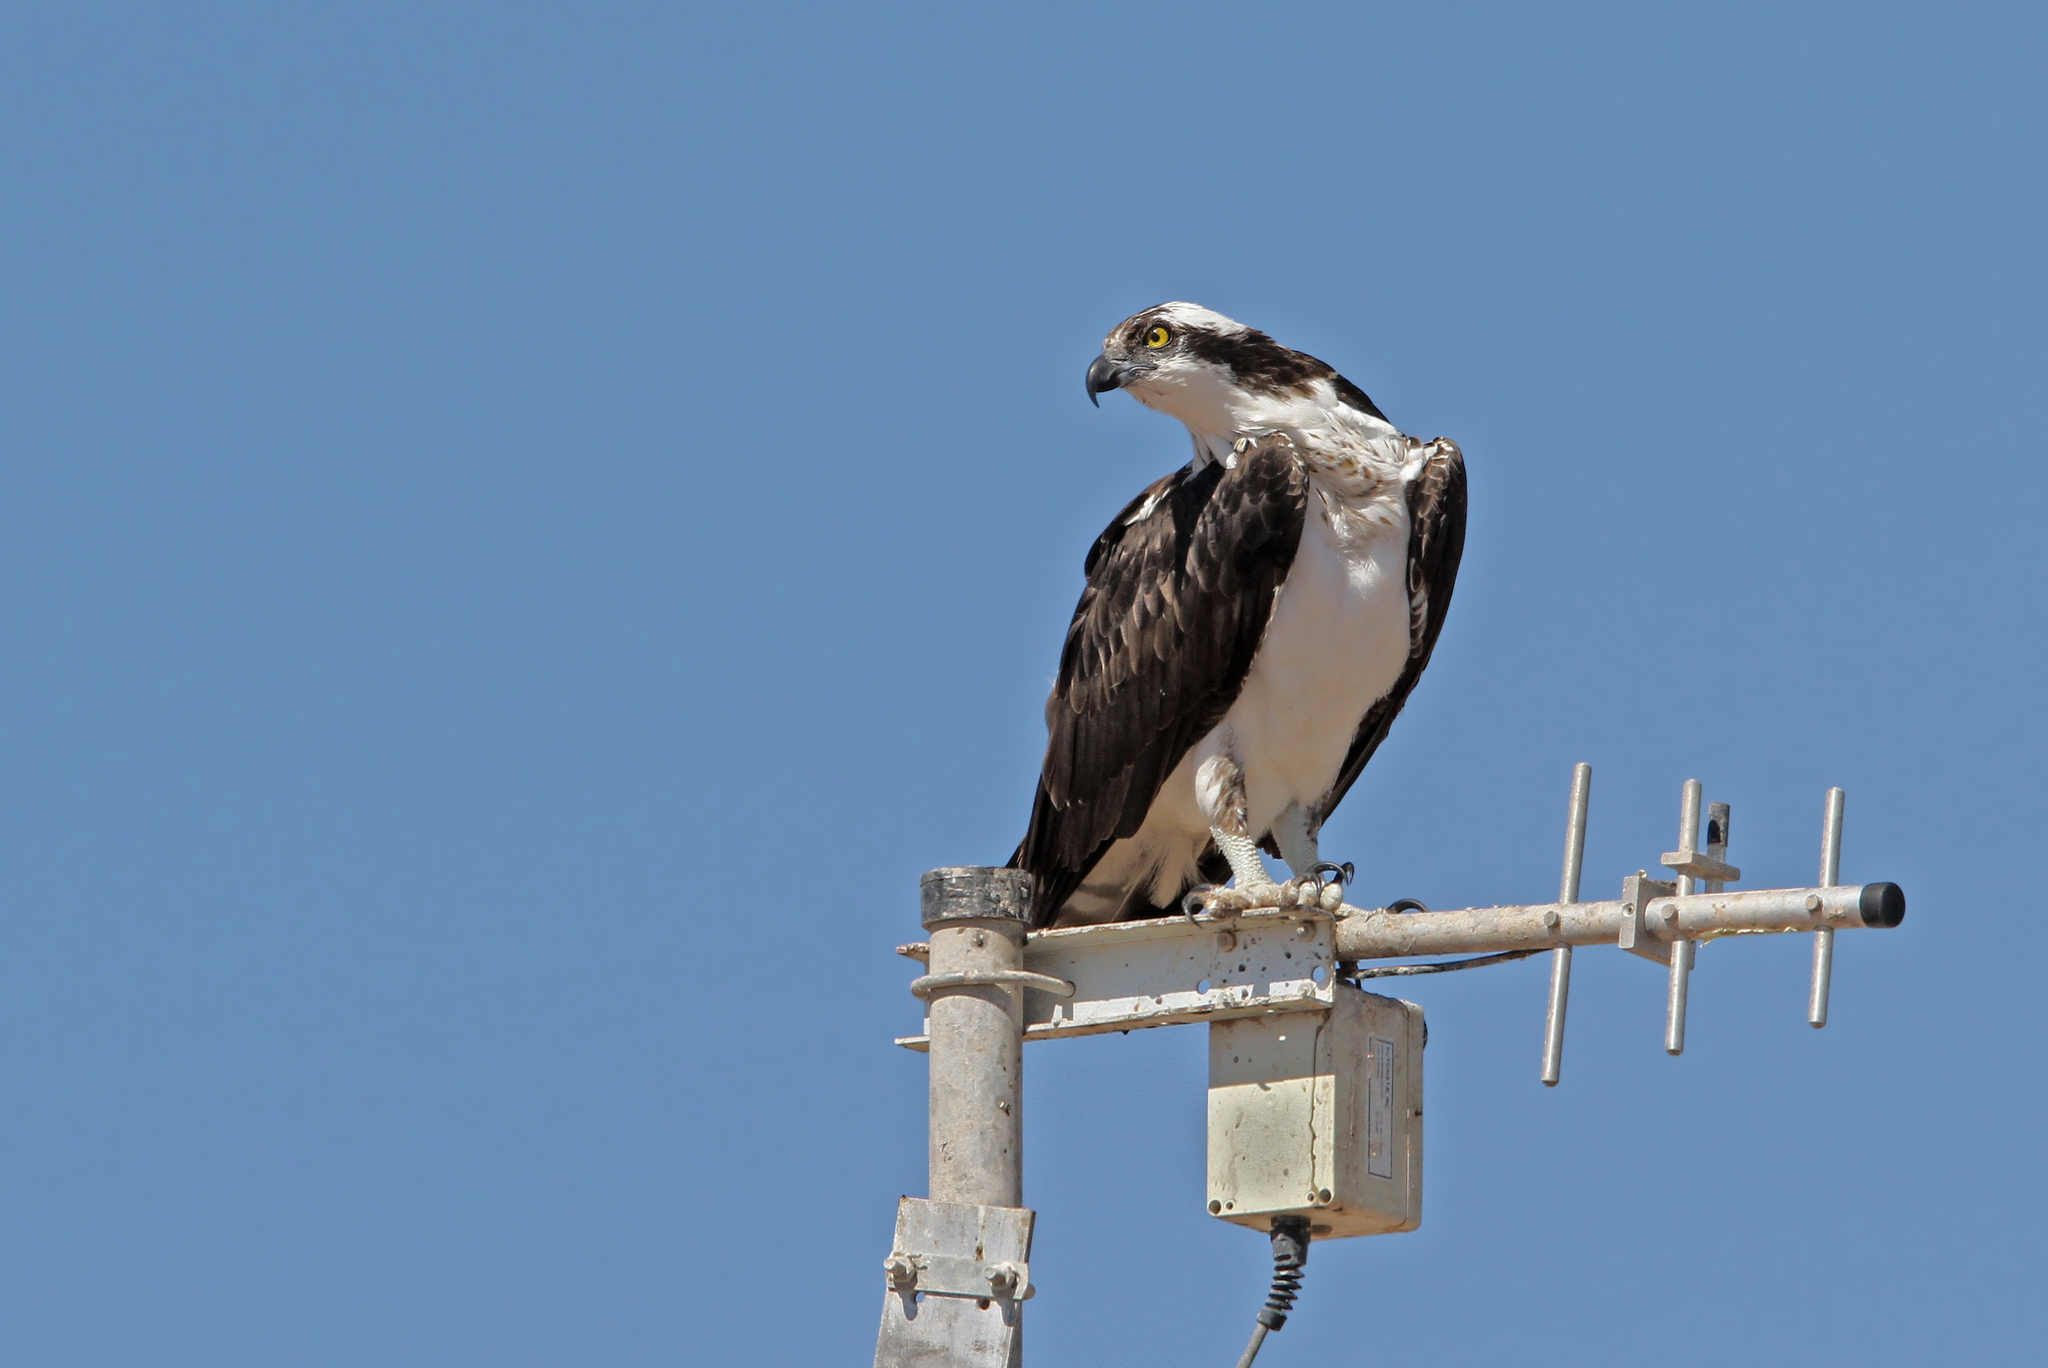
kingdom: Animalia
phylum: Chordata
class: Aves
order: Accipitriformes
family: Pandionidae
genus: Pandion
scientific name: Pandion haliaetus
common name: Osprey
